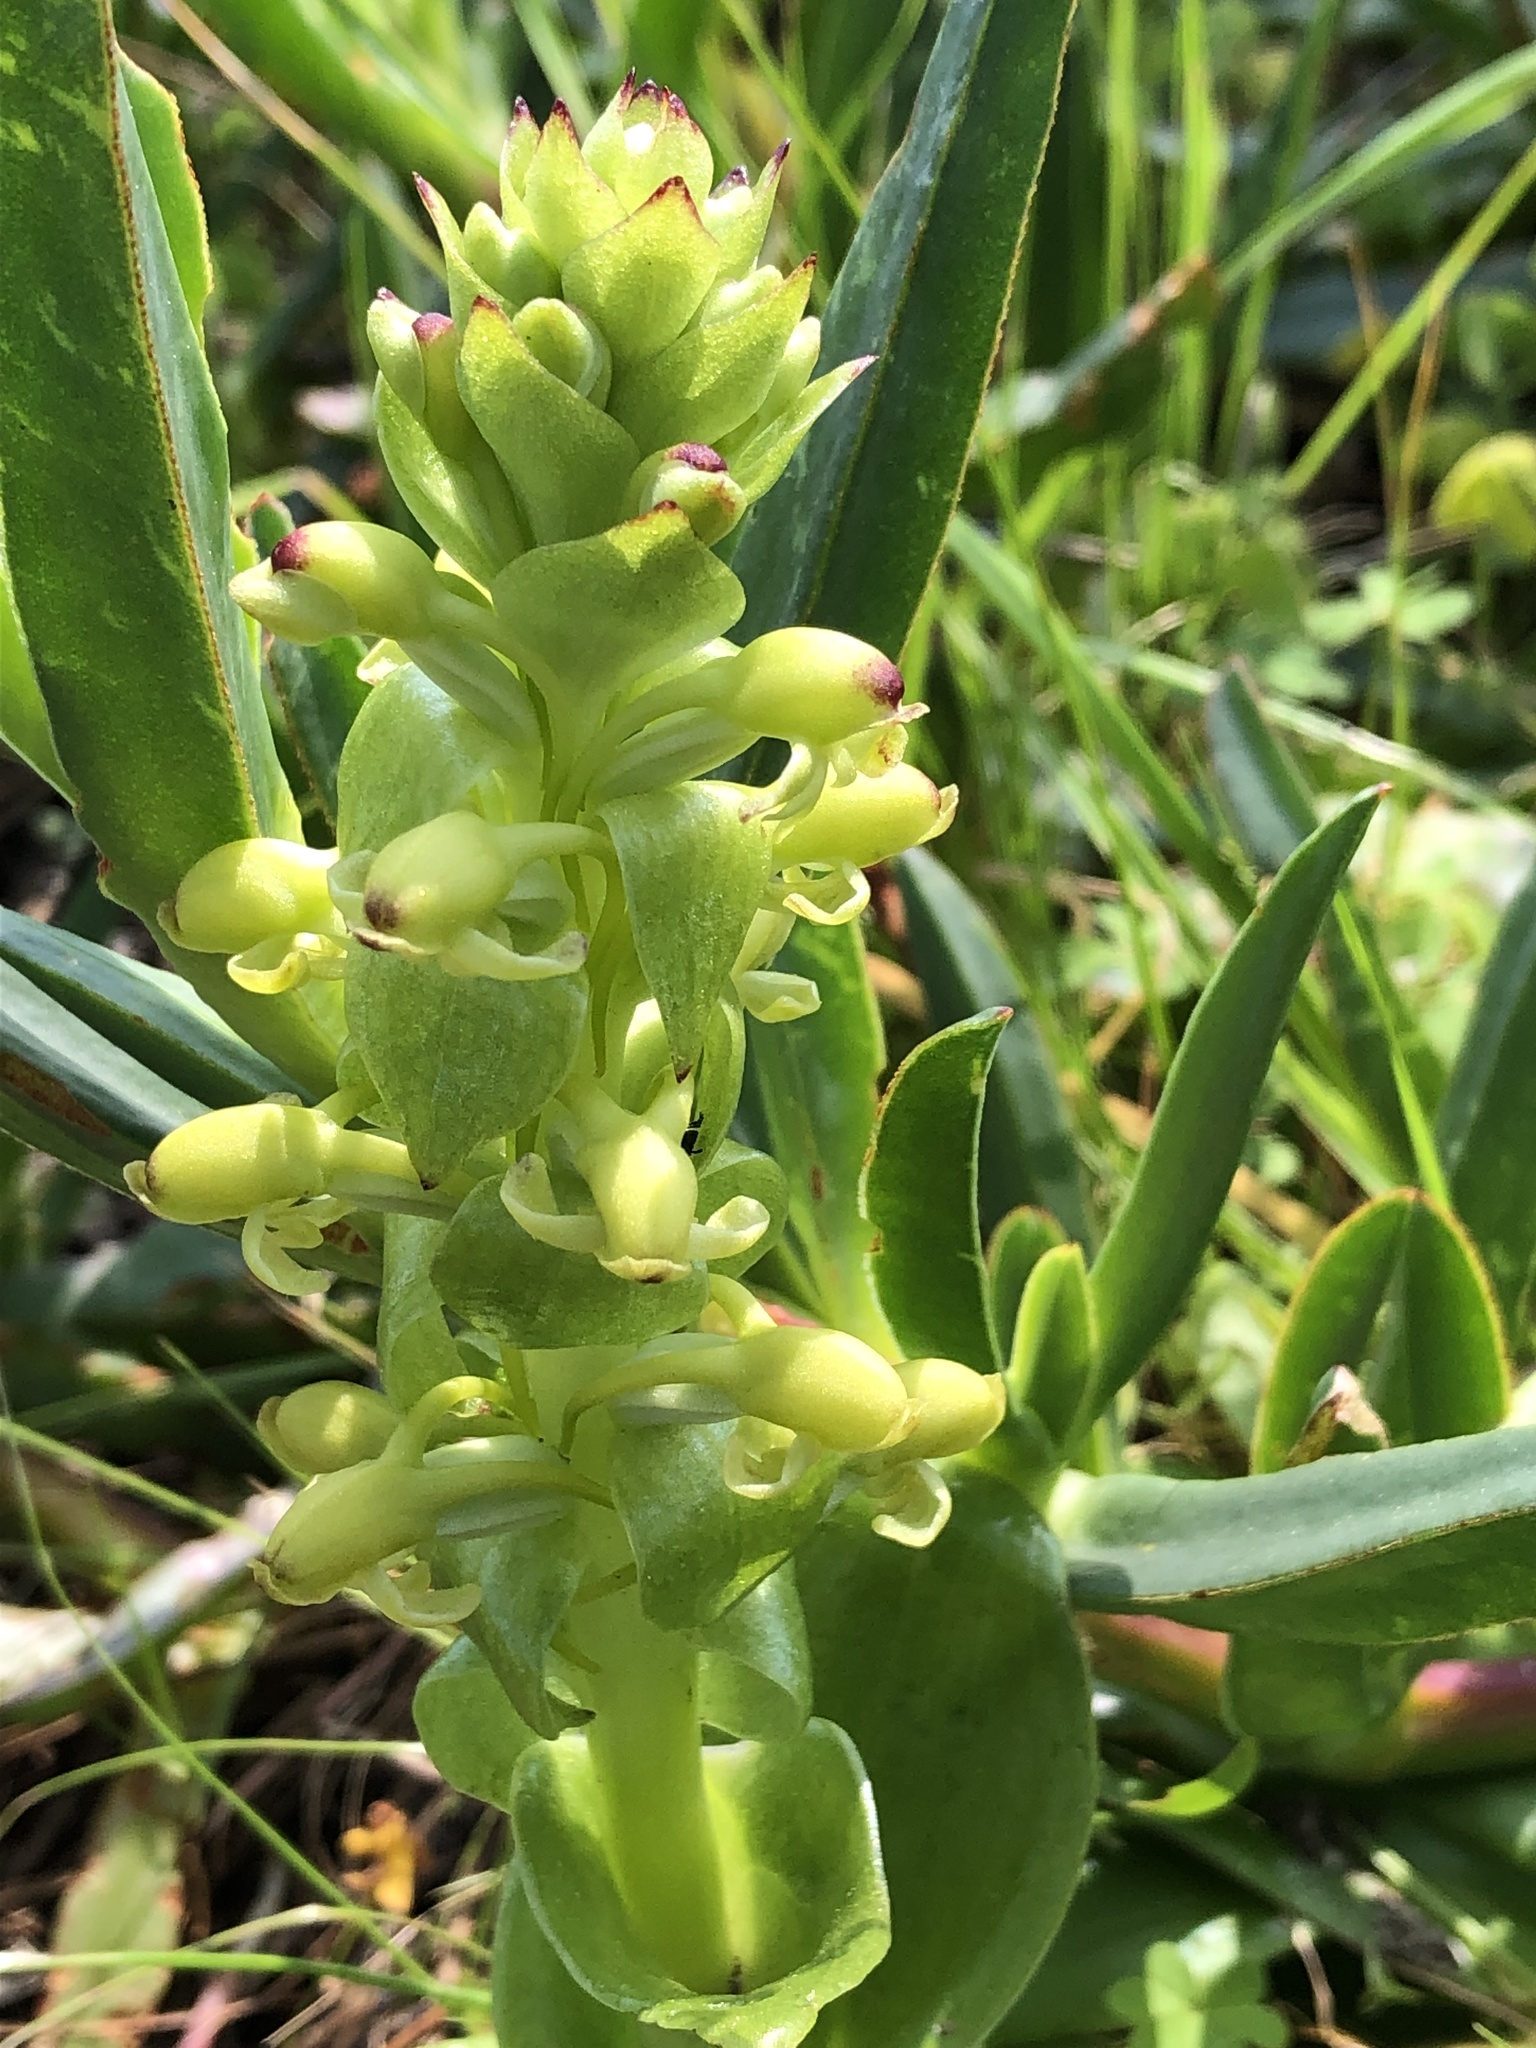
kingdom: Plantae
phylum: Tracheophyta
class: Liliopsida
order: Asparagales
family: Orchidaceae
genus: Satyrium
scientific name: Satyrium odorum
